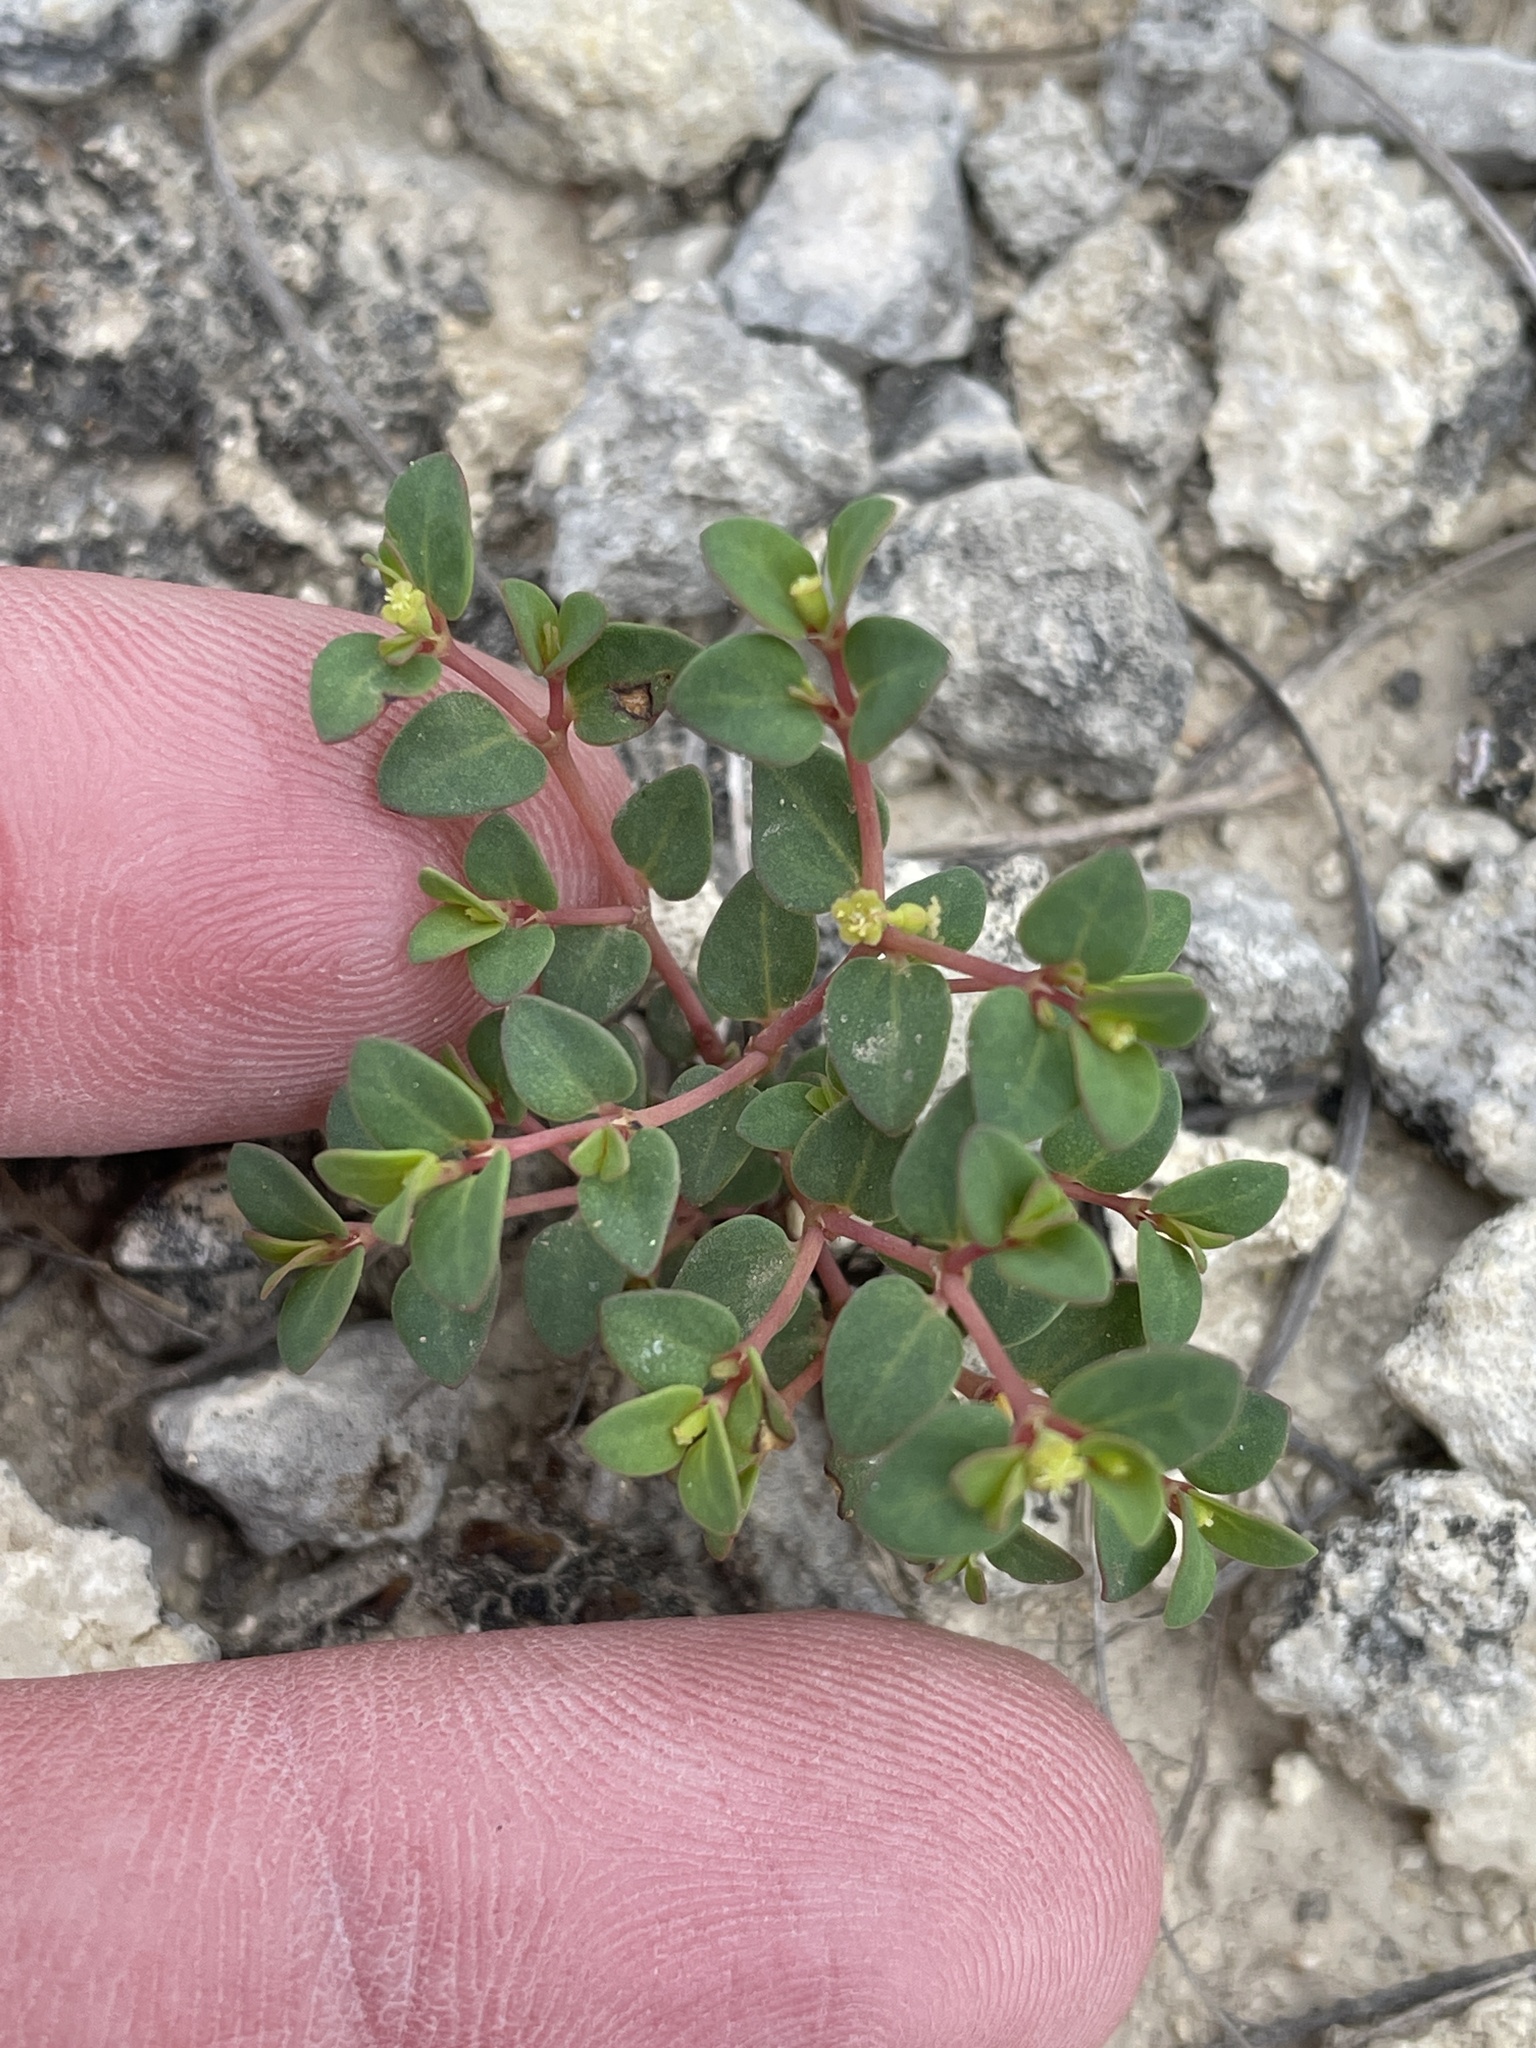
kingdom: Plantae
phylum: Tracheophyta
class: Magnoliopsida
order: Malpighiales
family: Euphorbiaceae
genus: Euphorbia
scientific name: Euphorbia fendleri
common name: Fendler's euphorbia
